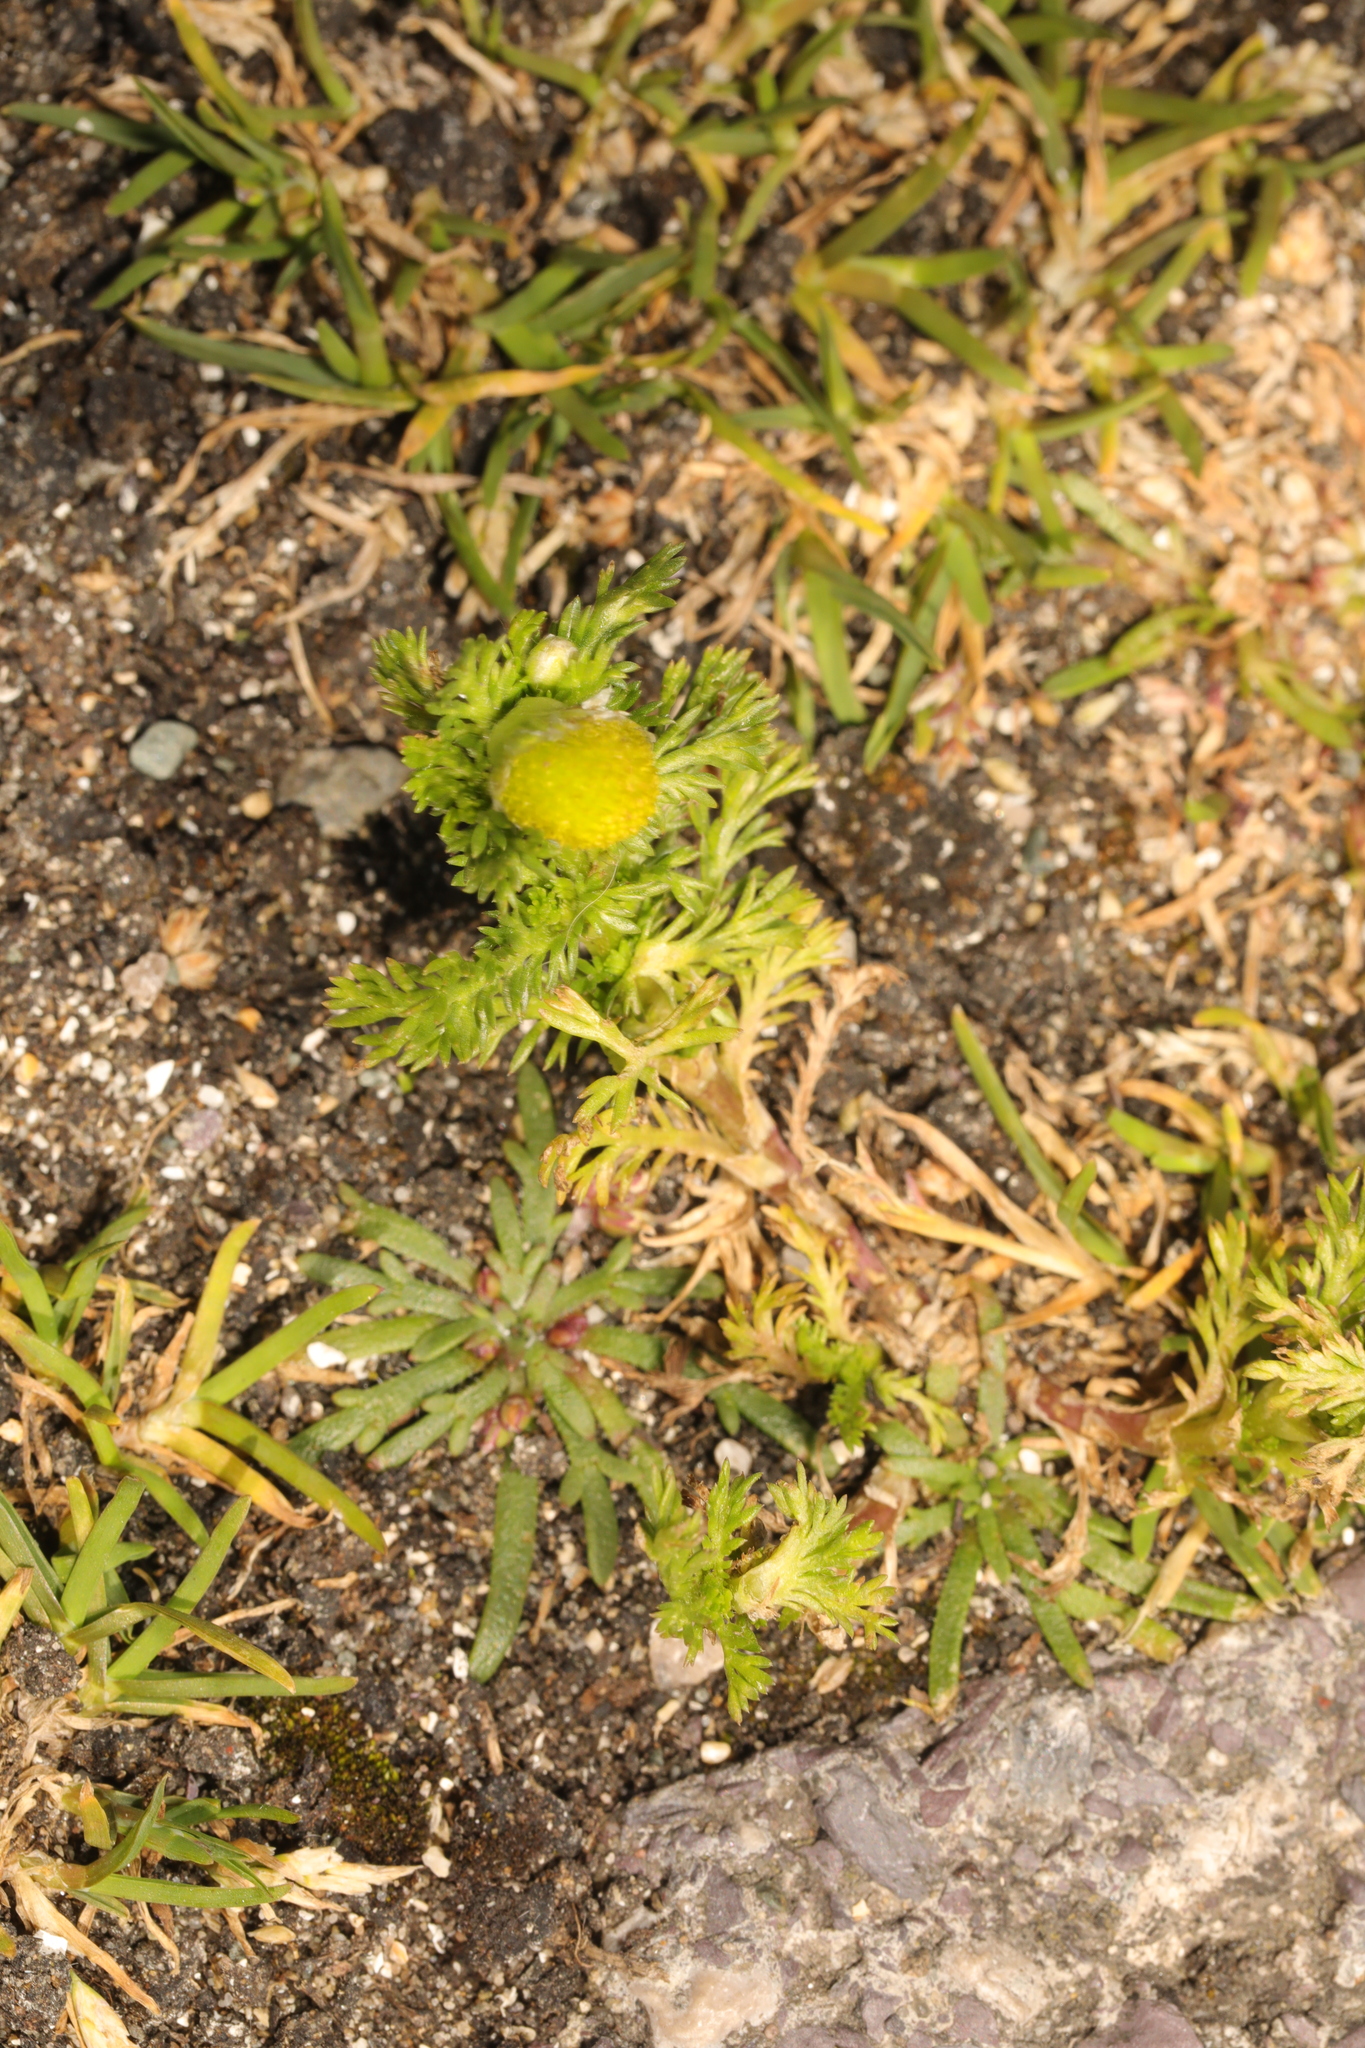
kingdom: Plantae
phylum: Tracheophyta
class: Magnoliopsida
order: Asterales
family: Asteraceae
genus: Matricaria
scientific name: Matricaria discoidea
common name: Disc mayweed
